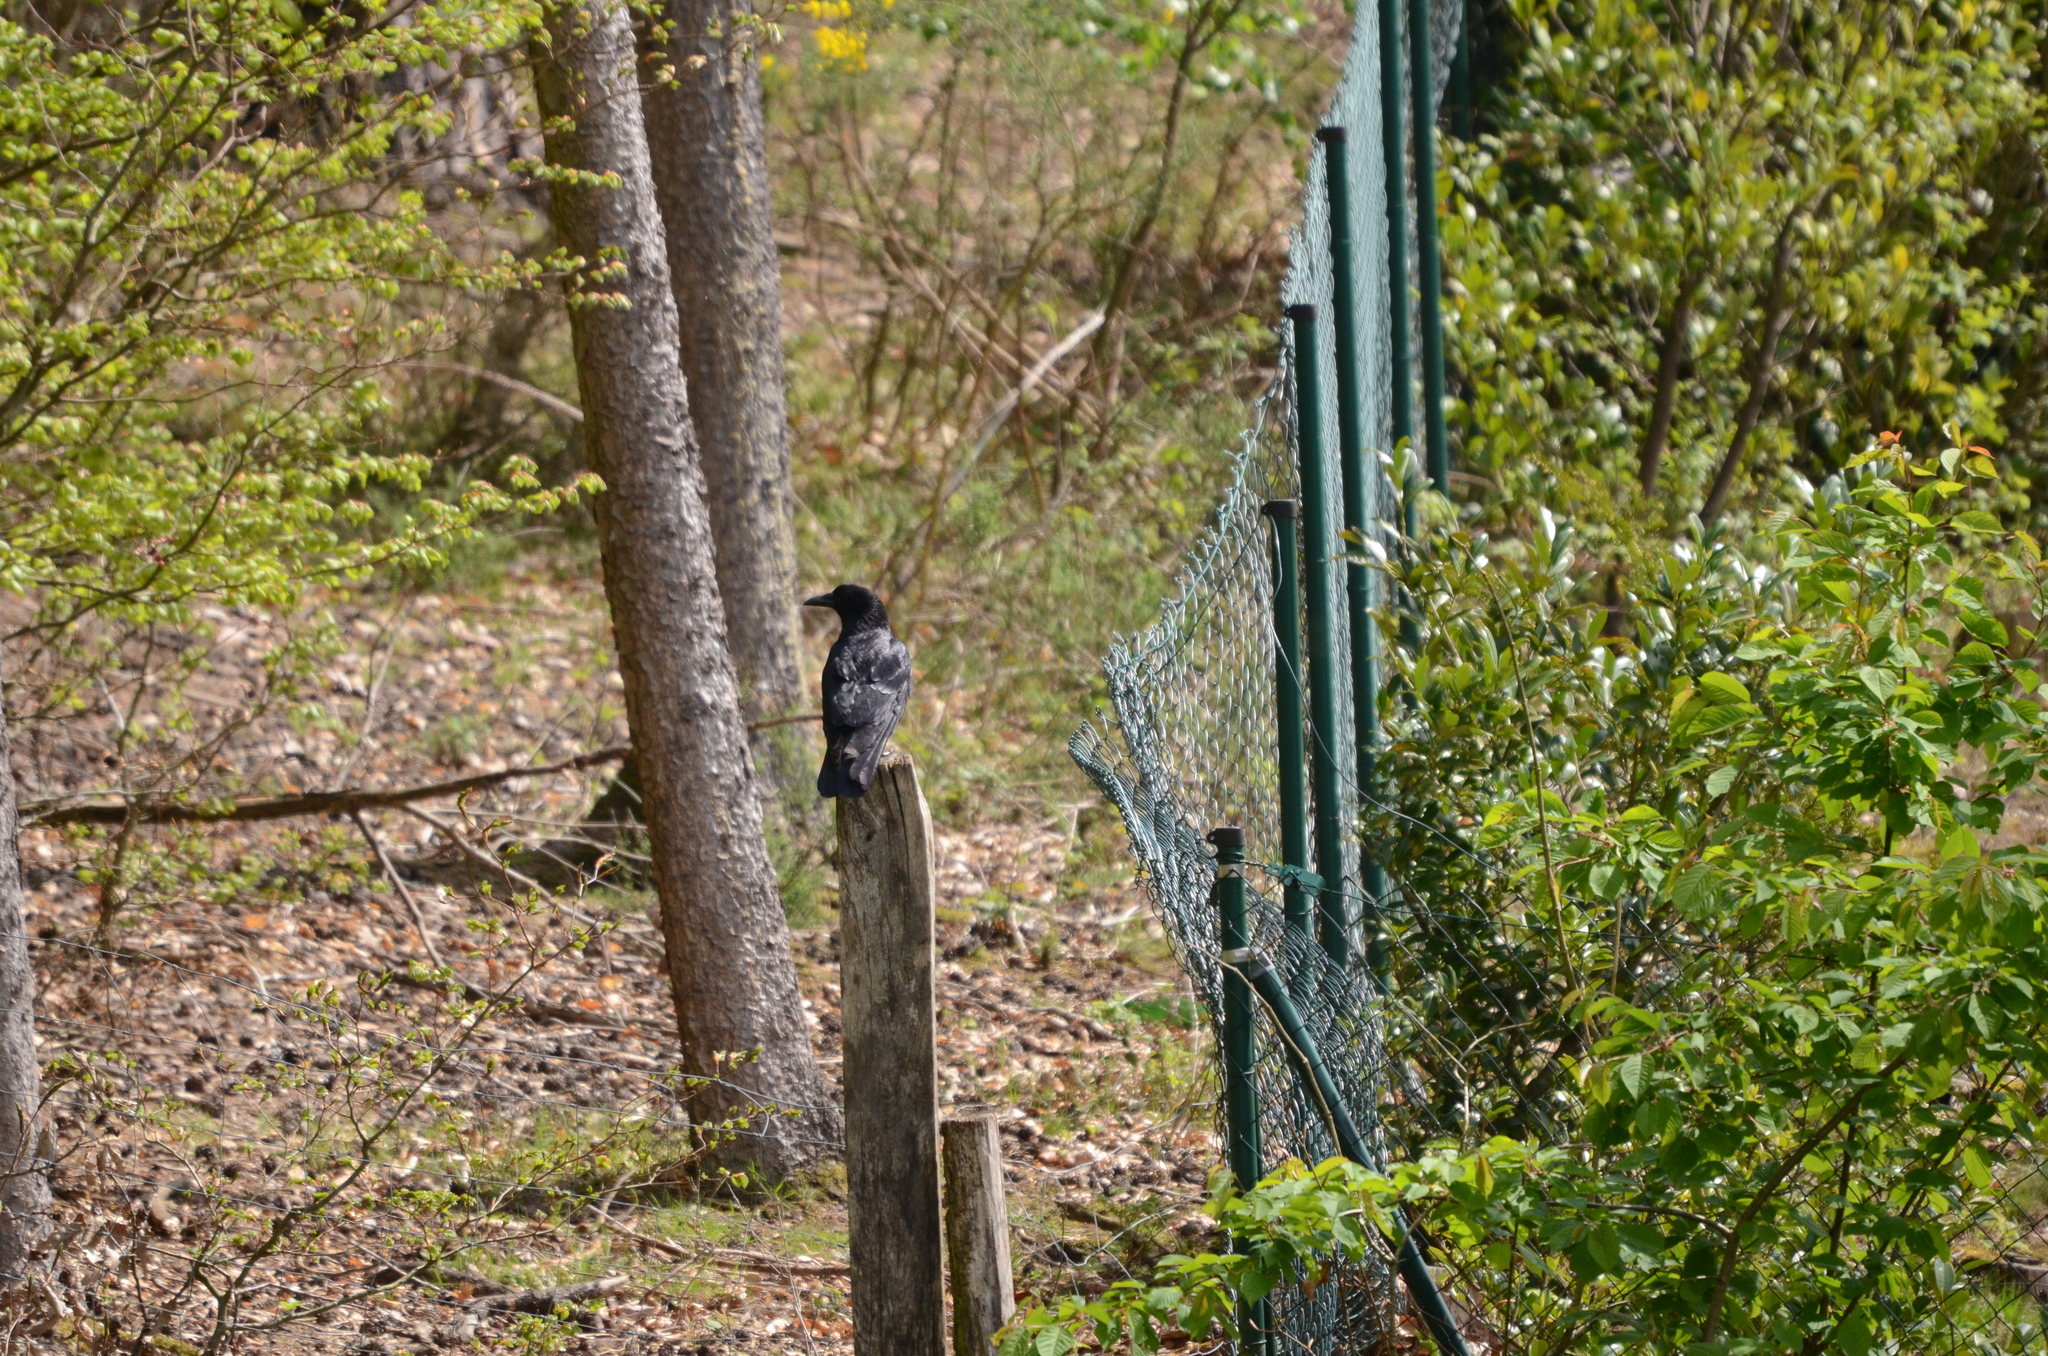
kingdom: Animalia
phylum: Chordata
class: Aves
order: Passeriformes
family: Corvidae
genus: Corvus
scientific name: Corvus corone
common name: Carrion crow
